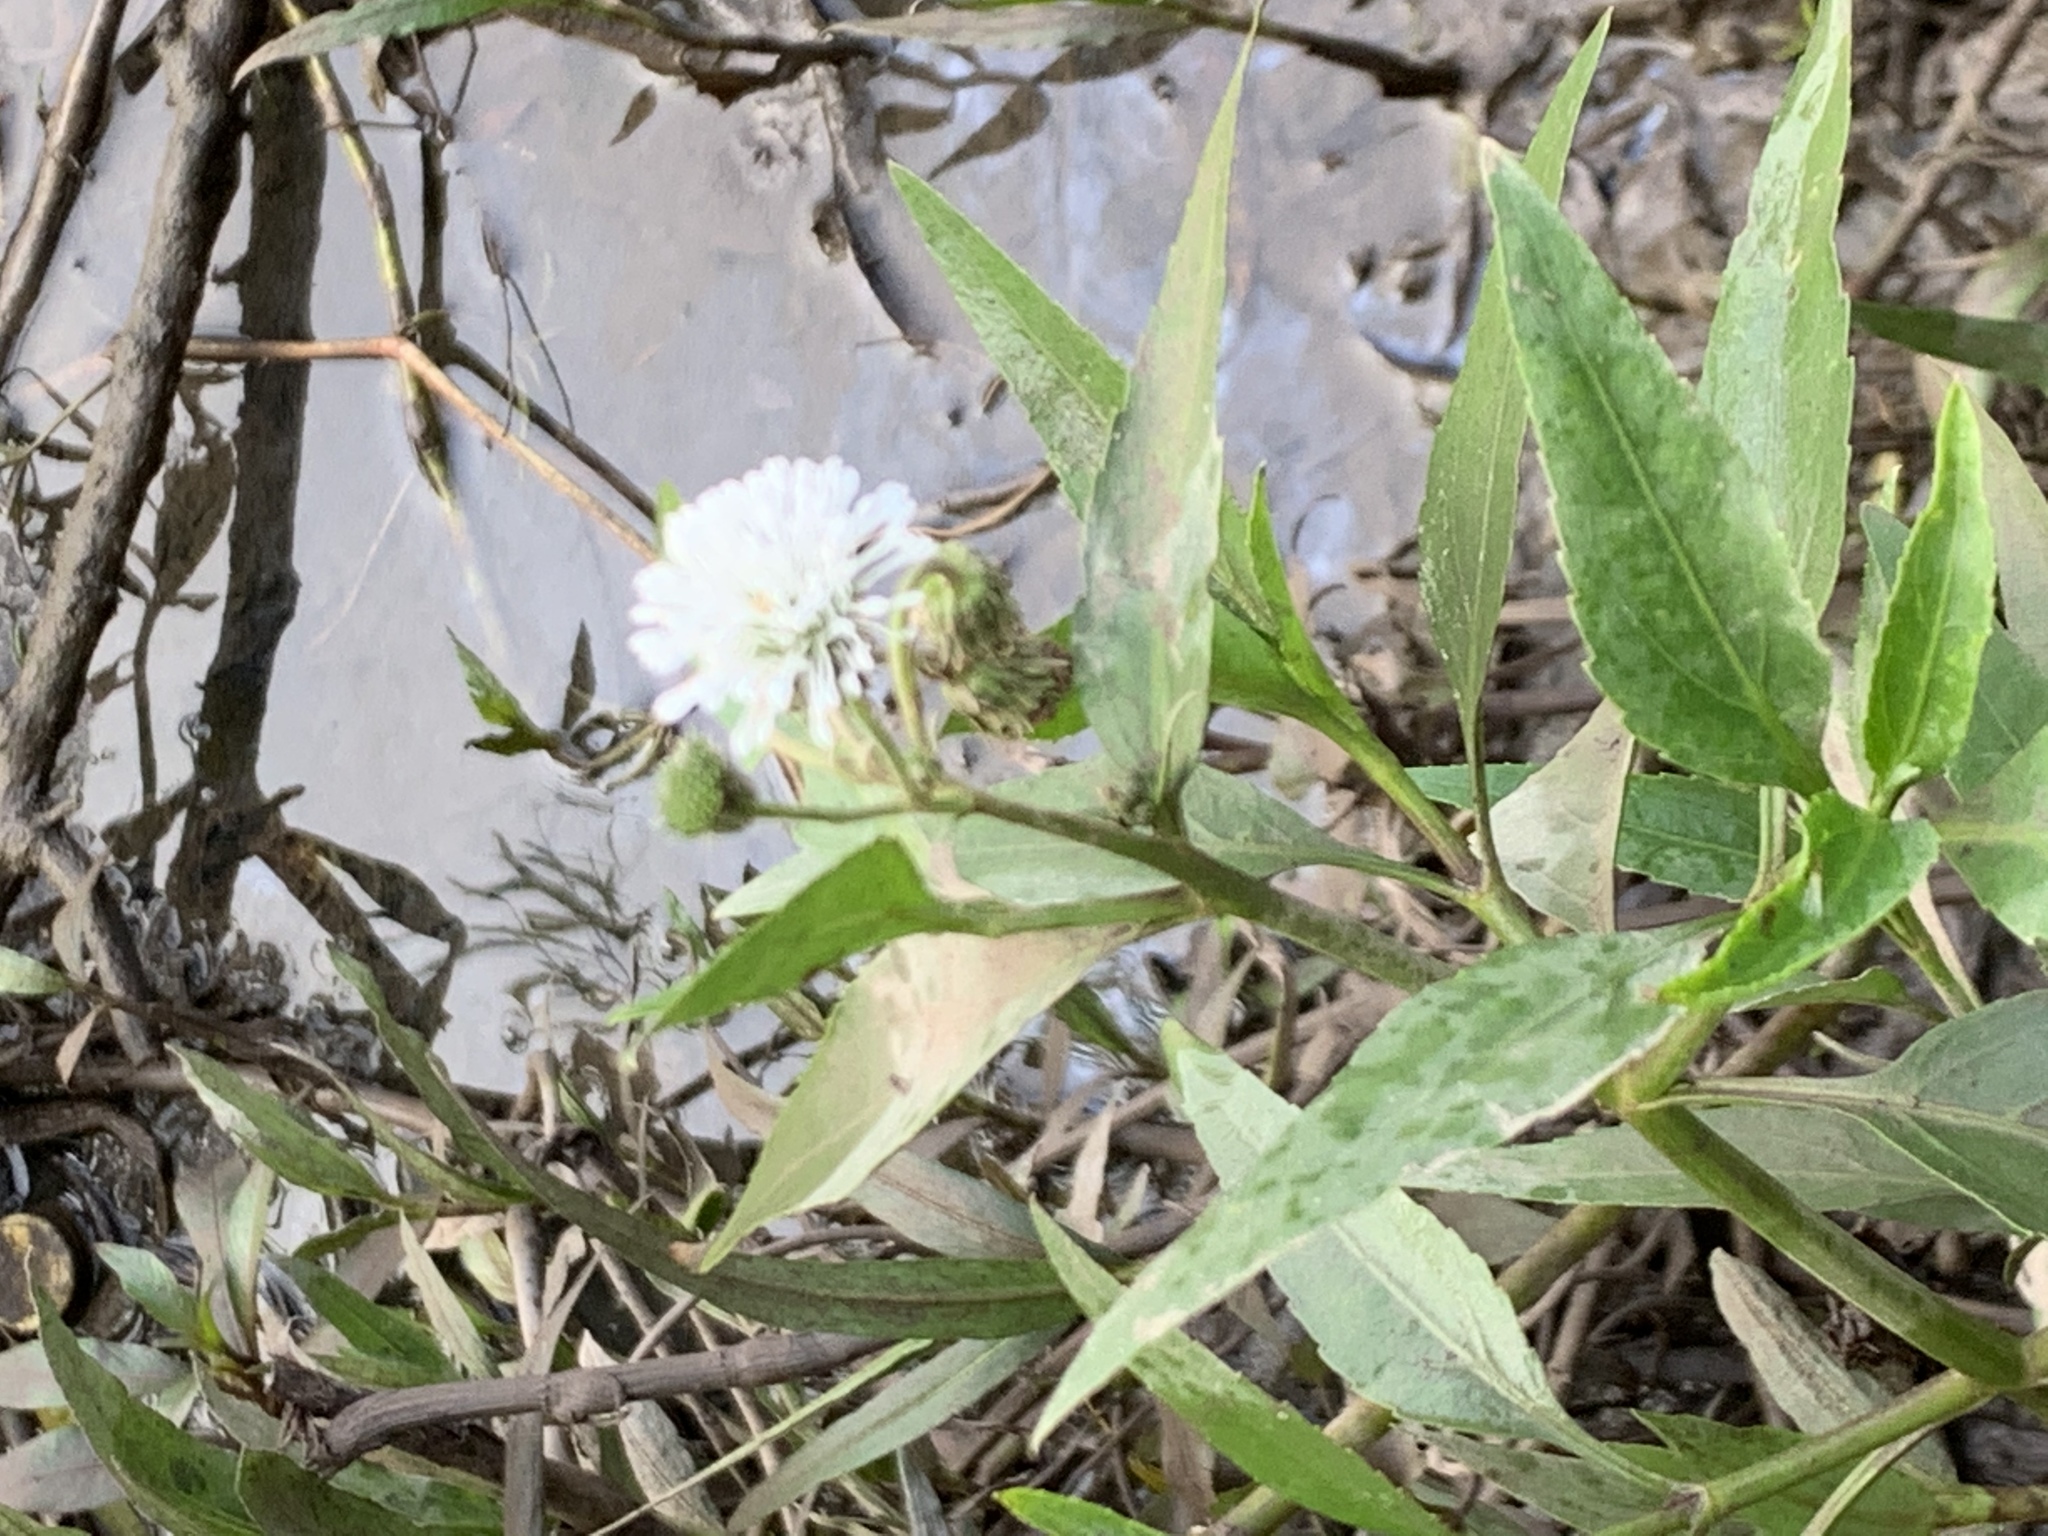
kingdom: Plantae
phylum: Tracheophyta
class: Magnoliopsida
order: Asterales
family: Asteraceae
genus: Gymnocoronis
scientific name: Gymnocoronis spilanthoides
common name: Senegal teaplant
